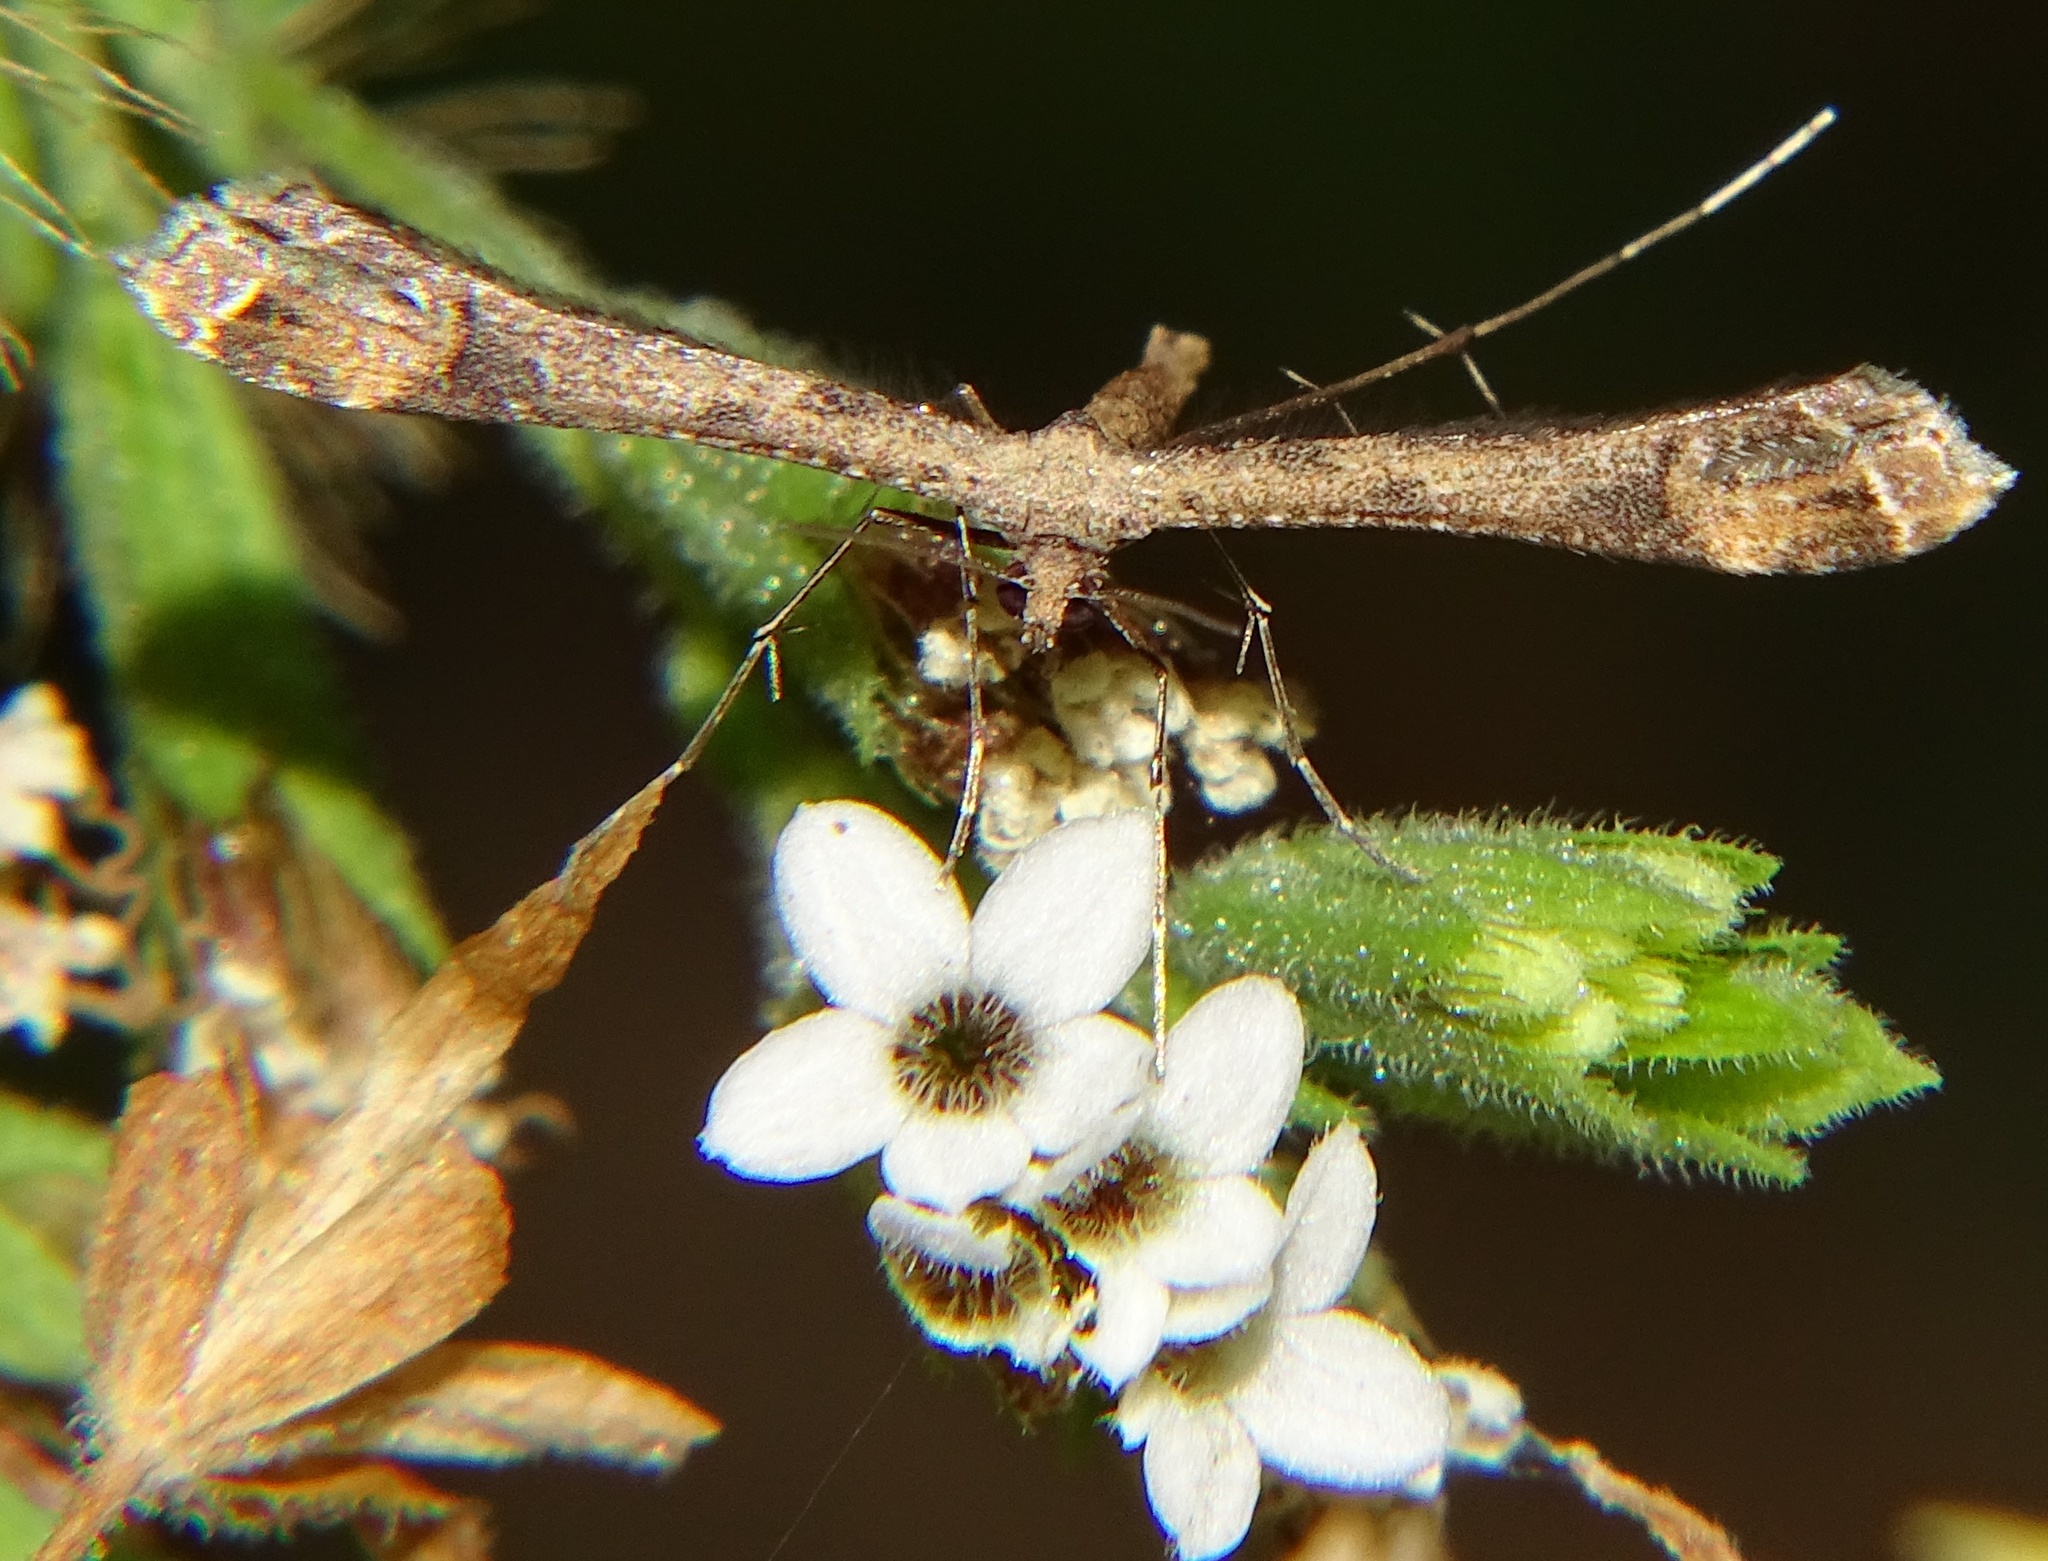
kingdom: Animalia
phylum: Arthropoda
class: Insecta
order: Lepidoptera
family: Pterophoridae
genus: Anstenoptilia
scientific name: Anstenoptilia marmarodactyla
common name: Moth
